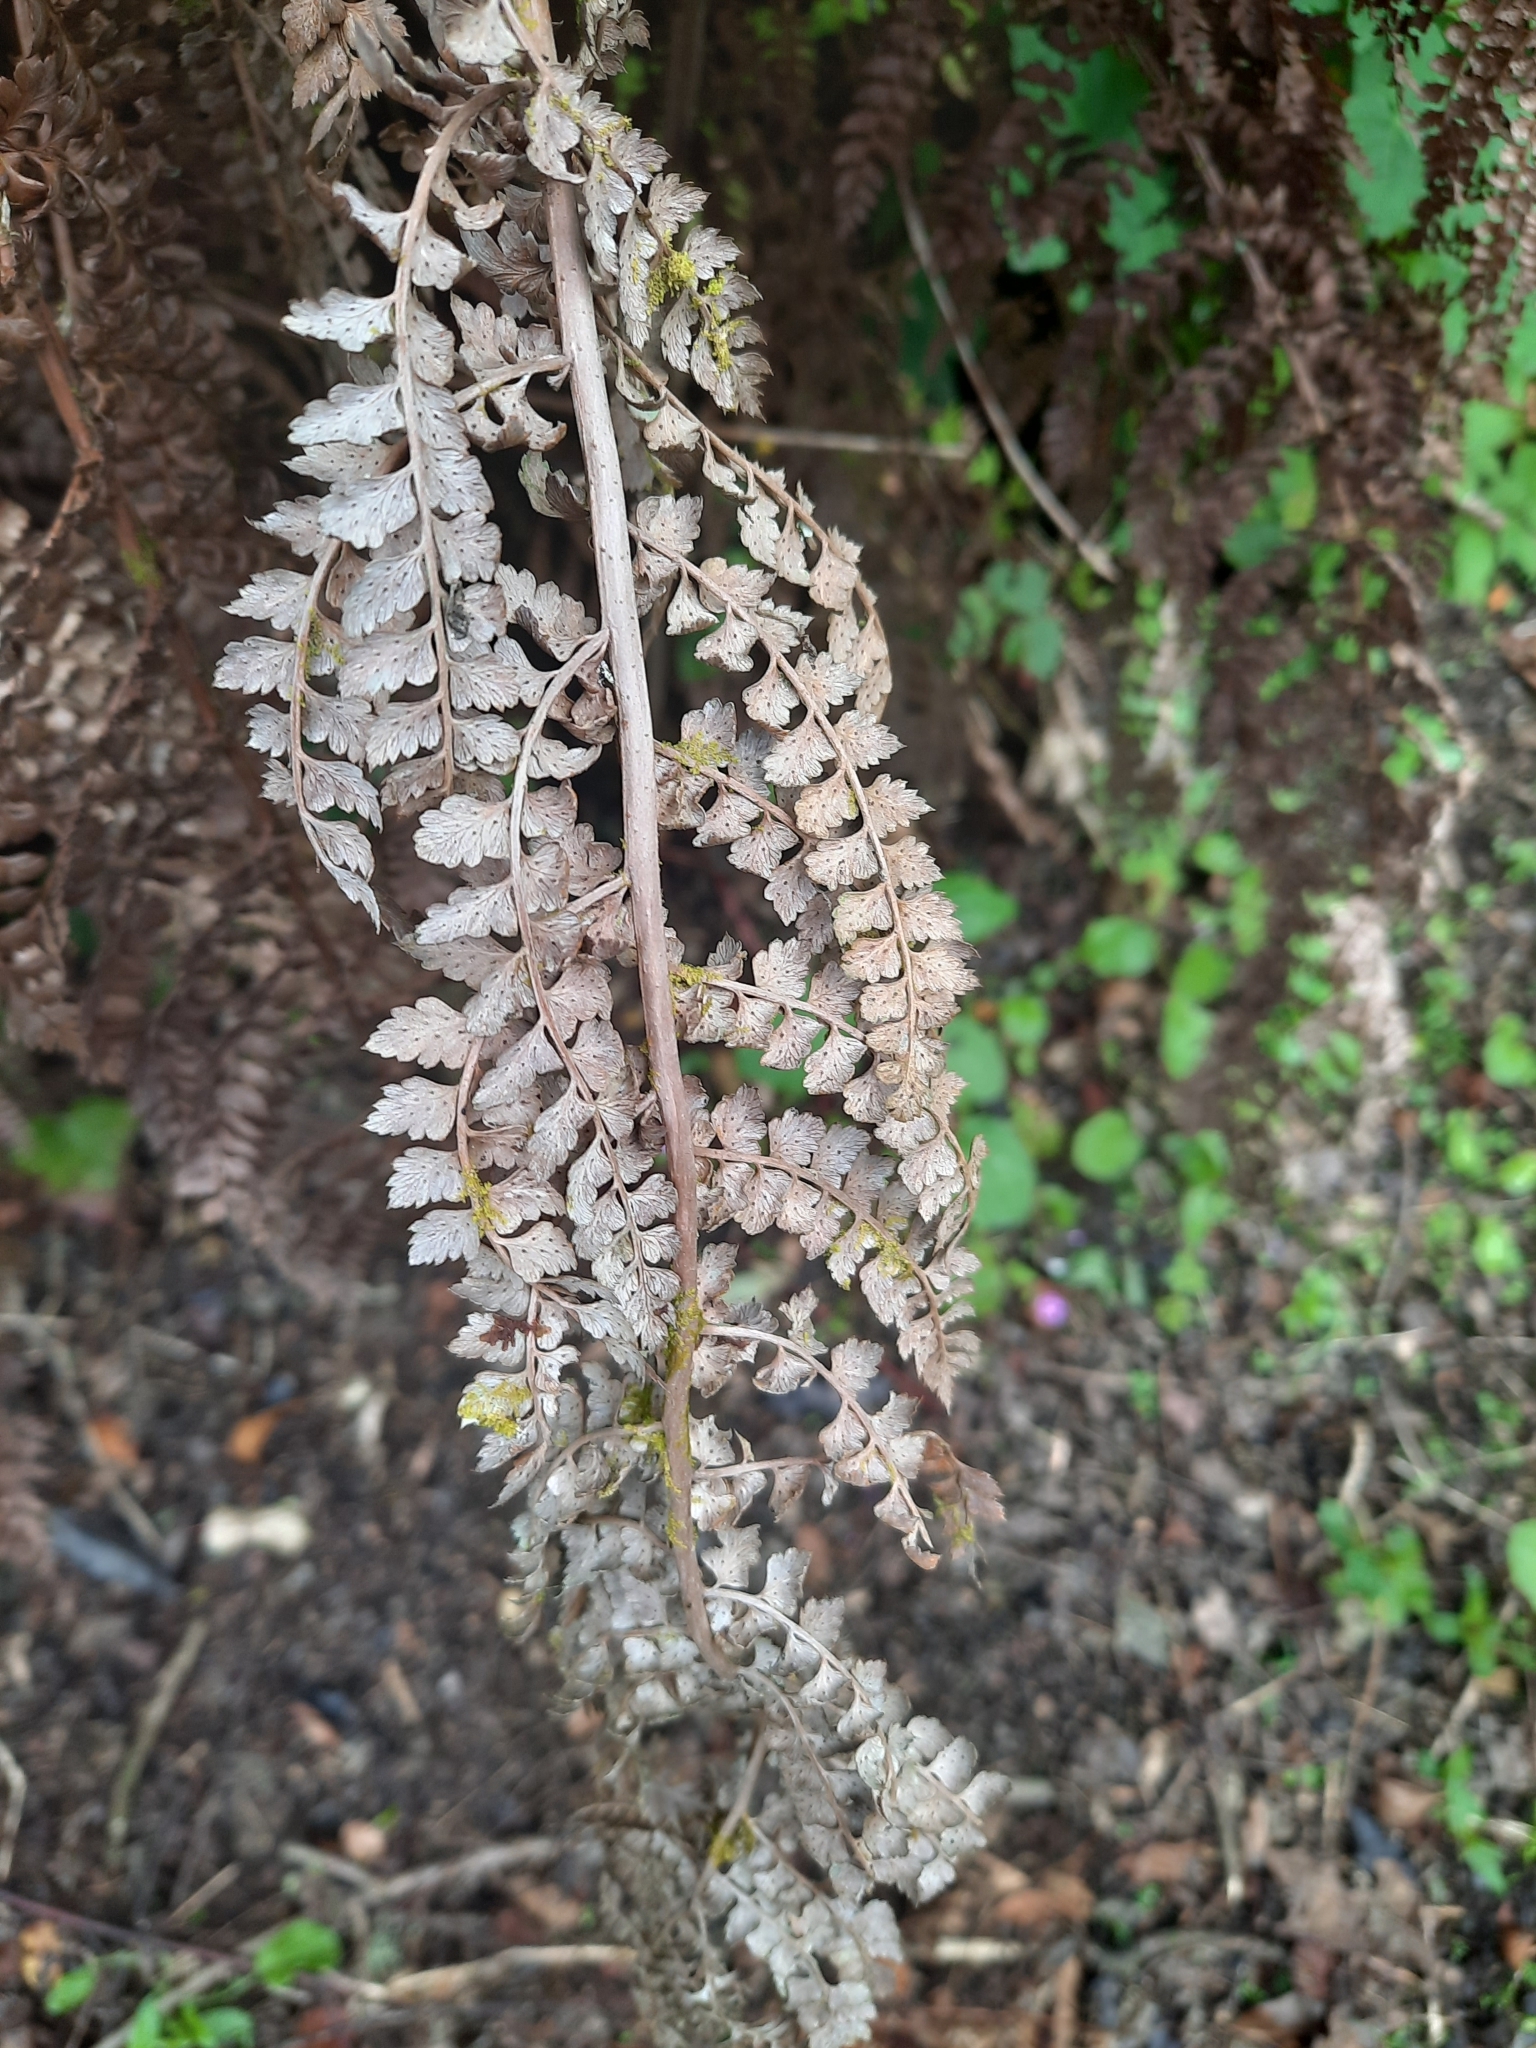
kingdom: Plantae
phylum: Marchantiophyta
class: Jungermanniopsida
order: Porellales
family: Lejeuneaceae
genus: Siphonolejeunea
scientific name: Siphonolejeunea nudipes
